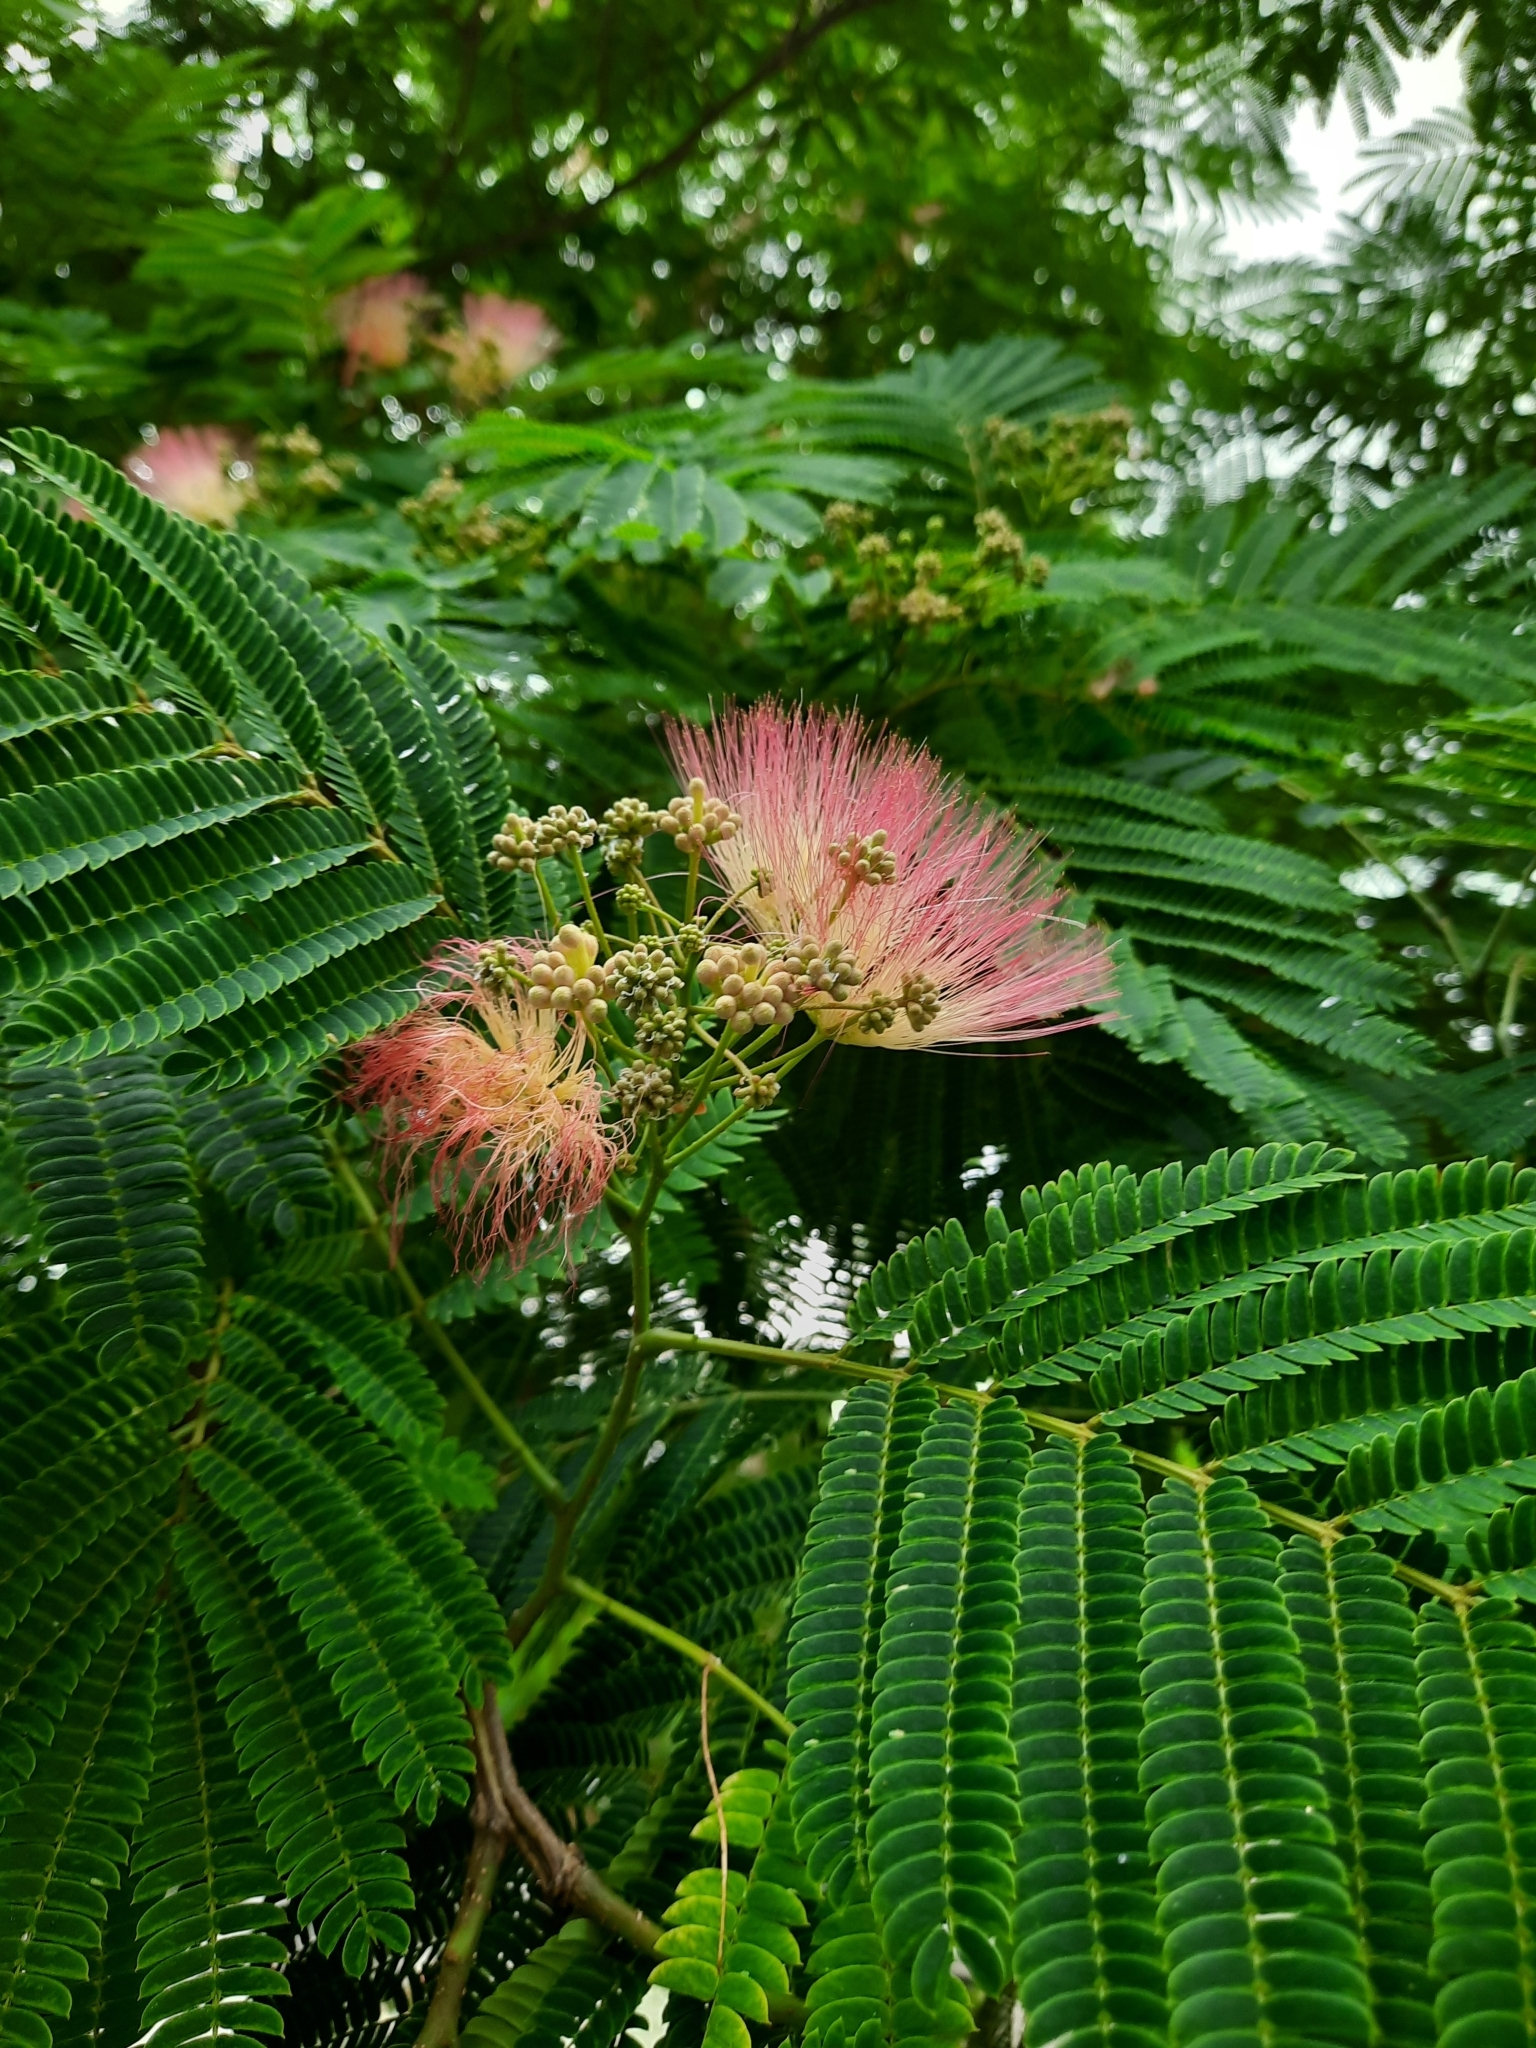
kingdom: Plantae
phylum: Tracheophyta
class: Magnoliopsida
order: Fabales
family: Fabaceae
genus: Albizia
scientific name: Albizia julibrissin
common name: Silktree
